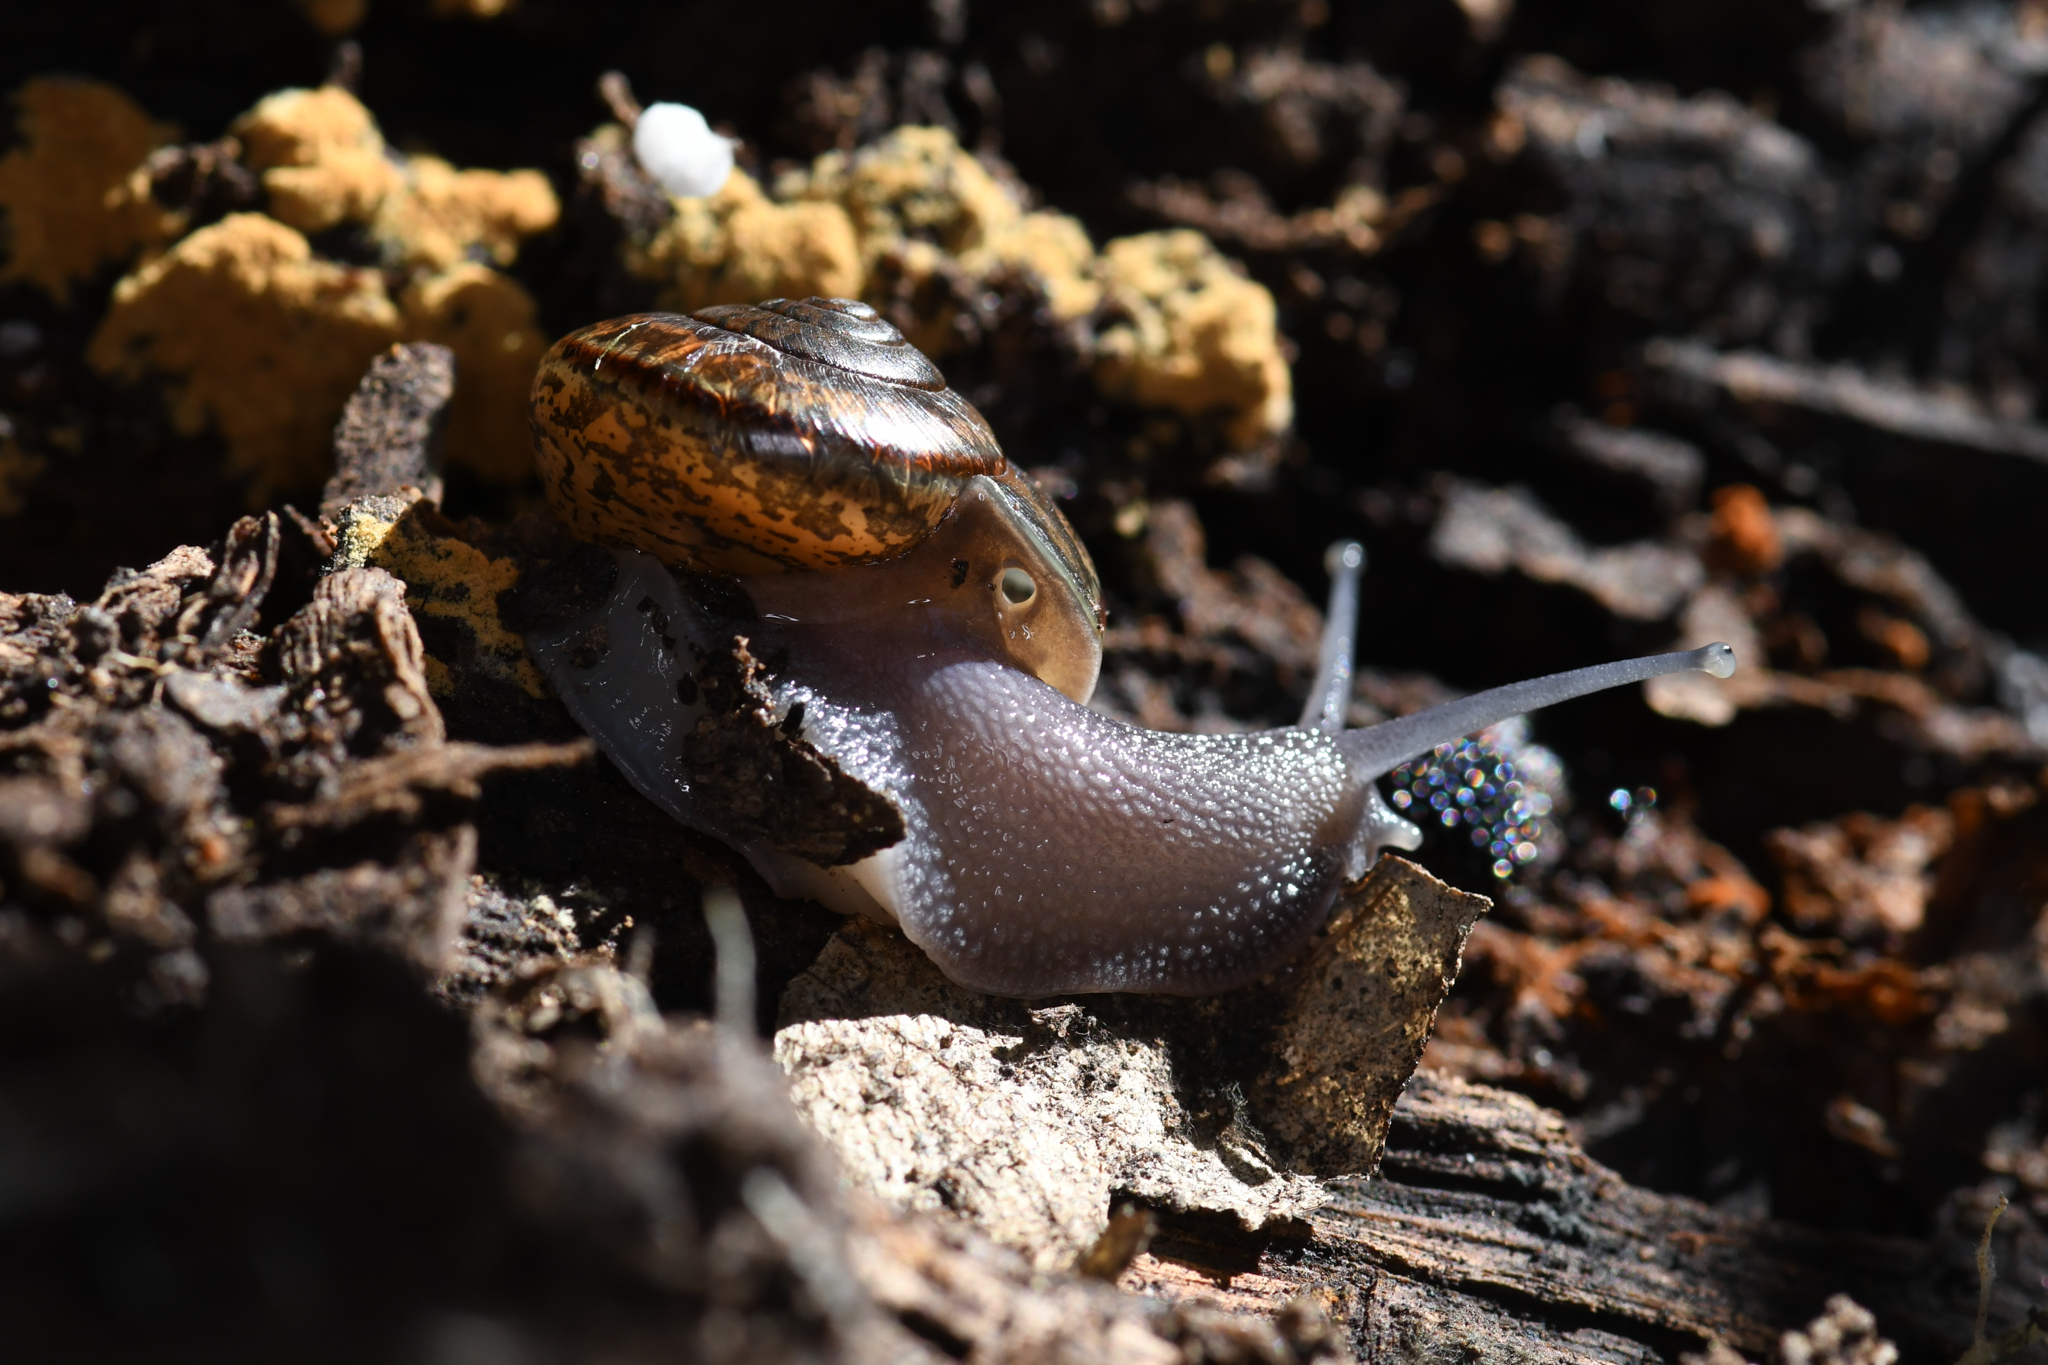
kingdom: Animalia
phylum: Mollusca
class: Gastropoda
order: Stylommatophora
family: Xanthonychidae
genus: Helminthoglypta
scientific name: Helminthoglypta phlyctaena
